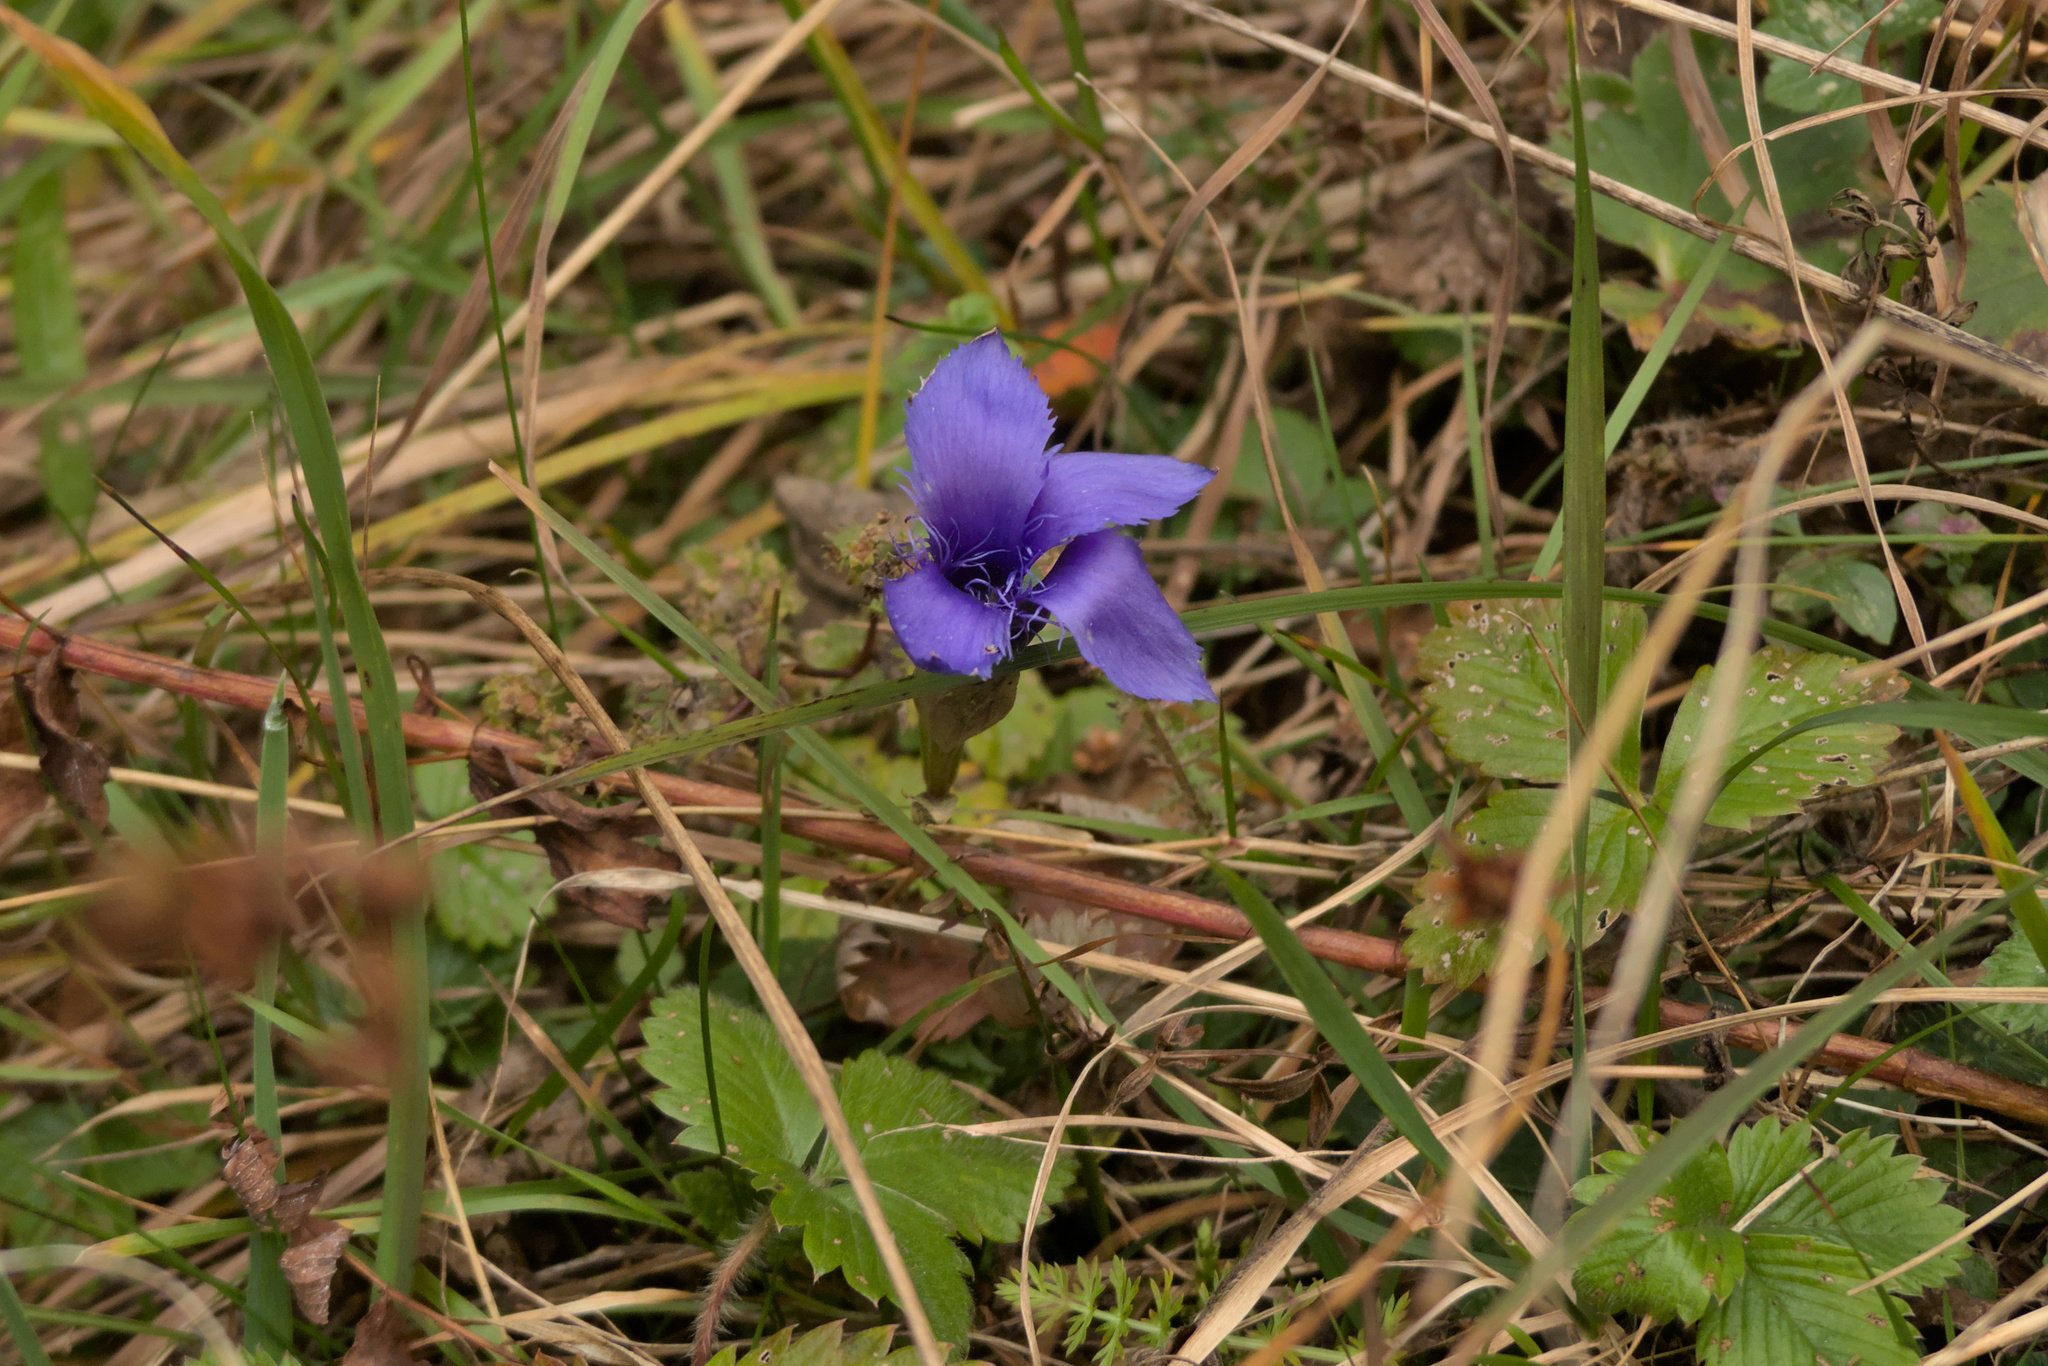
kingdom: Plantae
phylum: Tracheophyta
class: Magnoliopsida
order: Gentianales
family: Gentianaceae
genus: Gentianopsis
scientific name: Gentianopsis ciliata
